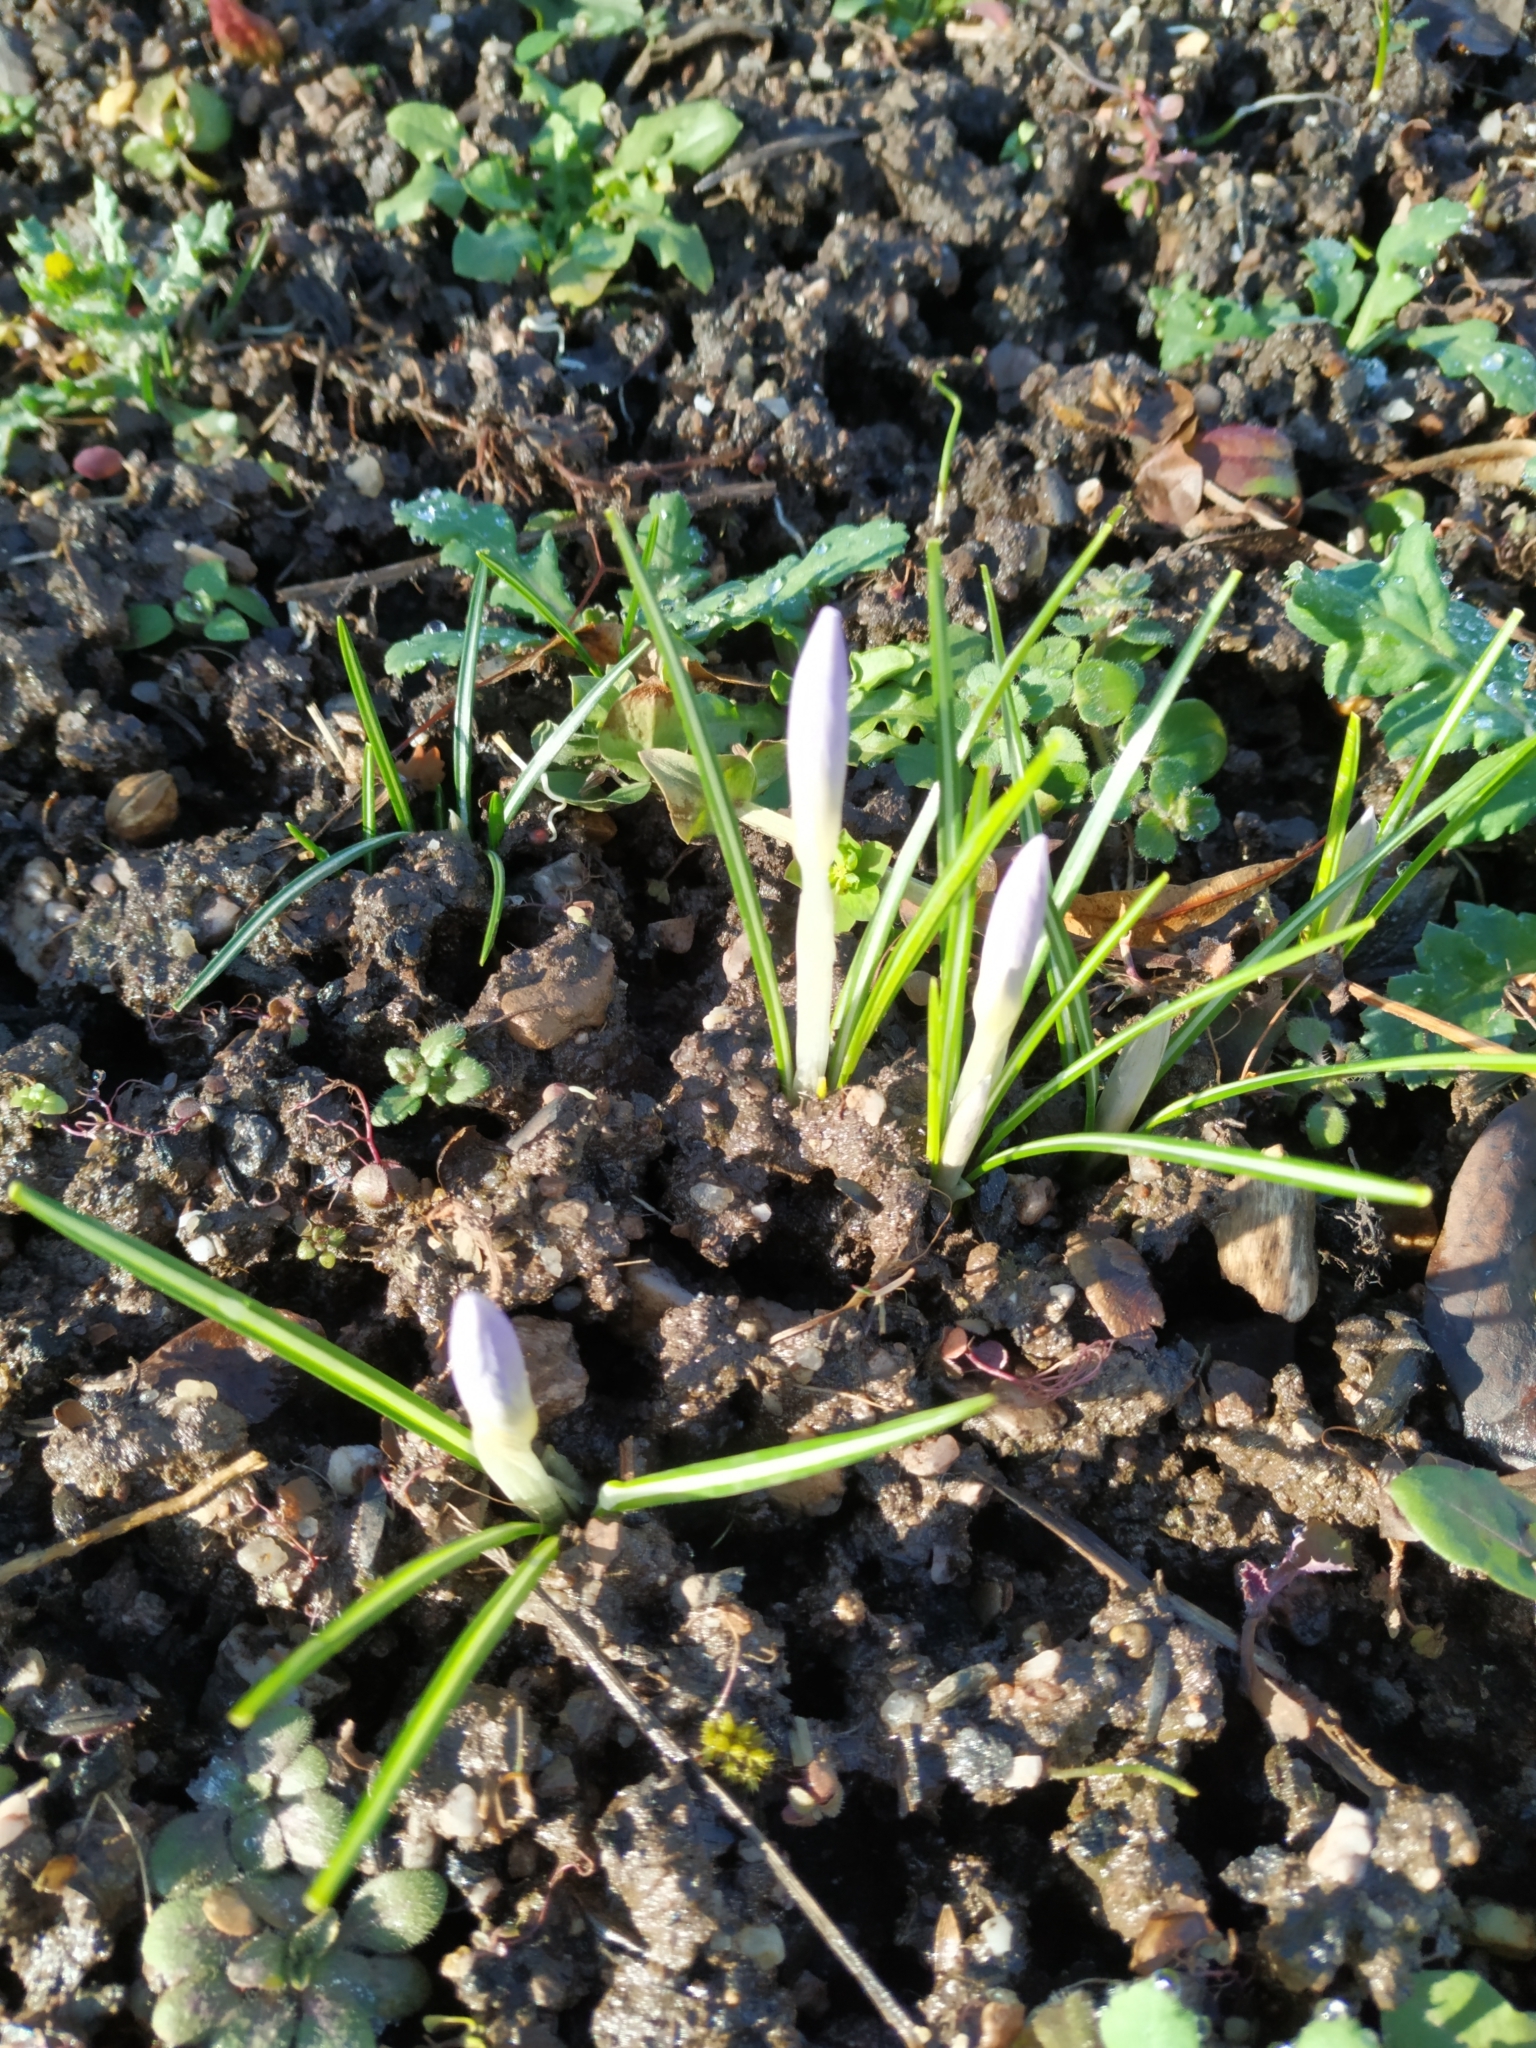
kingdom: Plantae
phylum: Tracheophyta
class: Liliopsida
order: Asparagales
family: Iridaceae
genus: Crocus
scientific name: Crocus tommasinianus
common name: Early crocus
